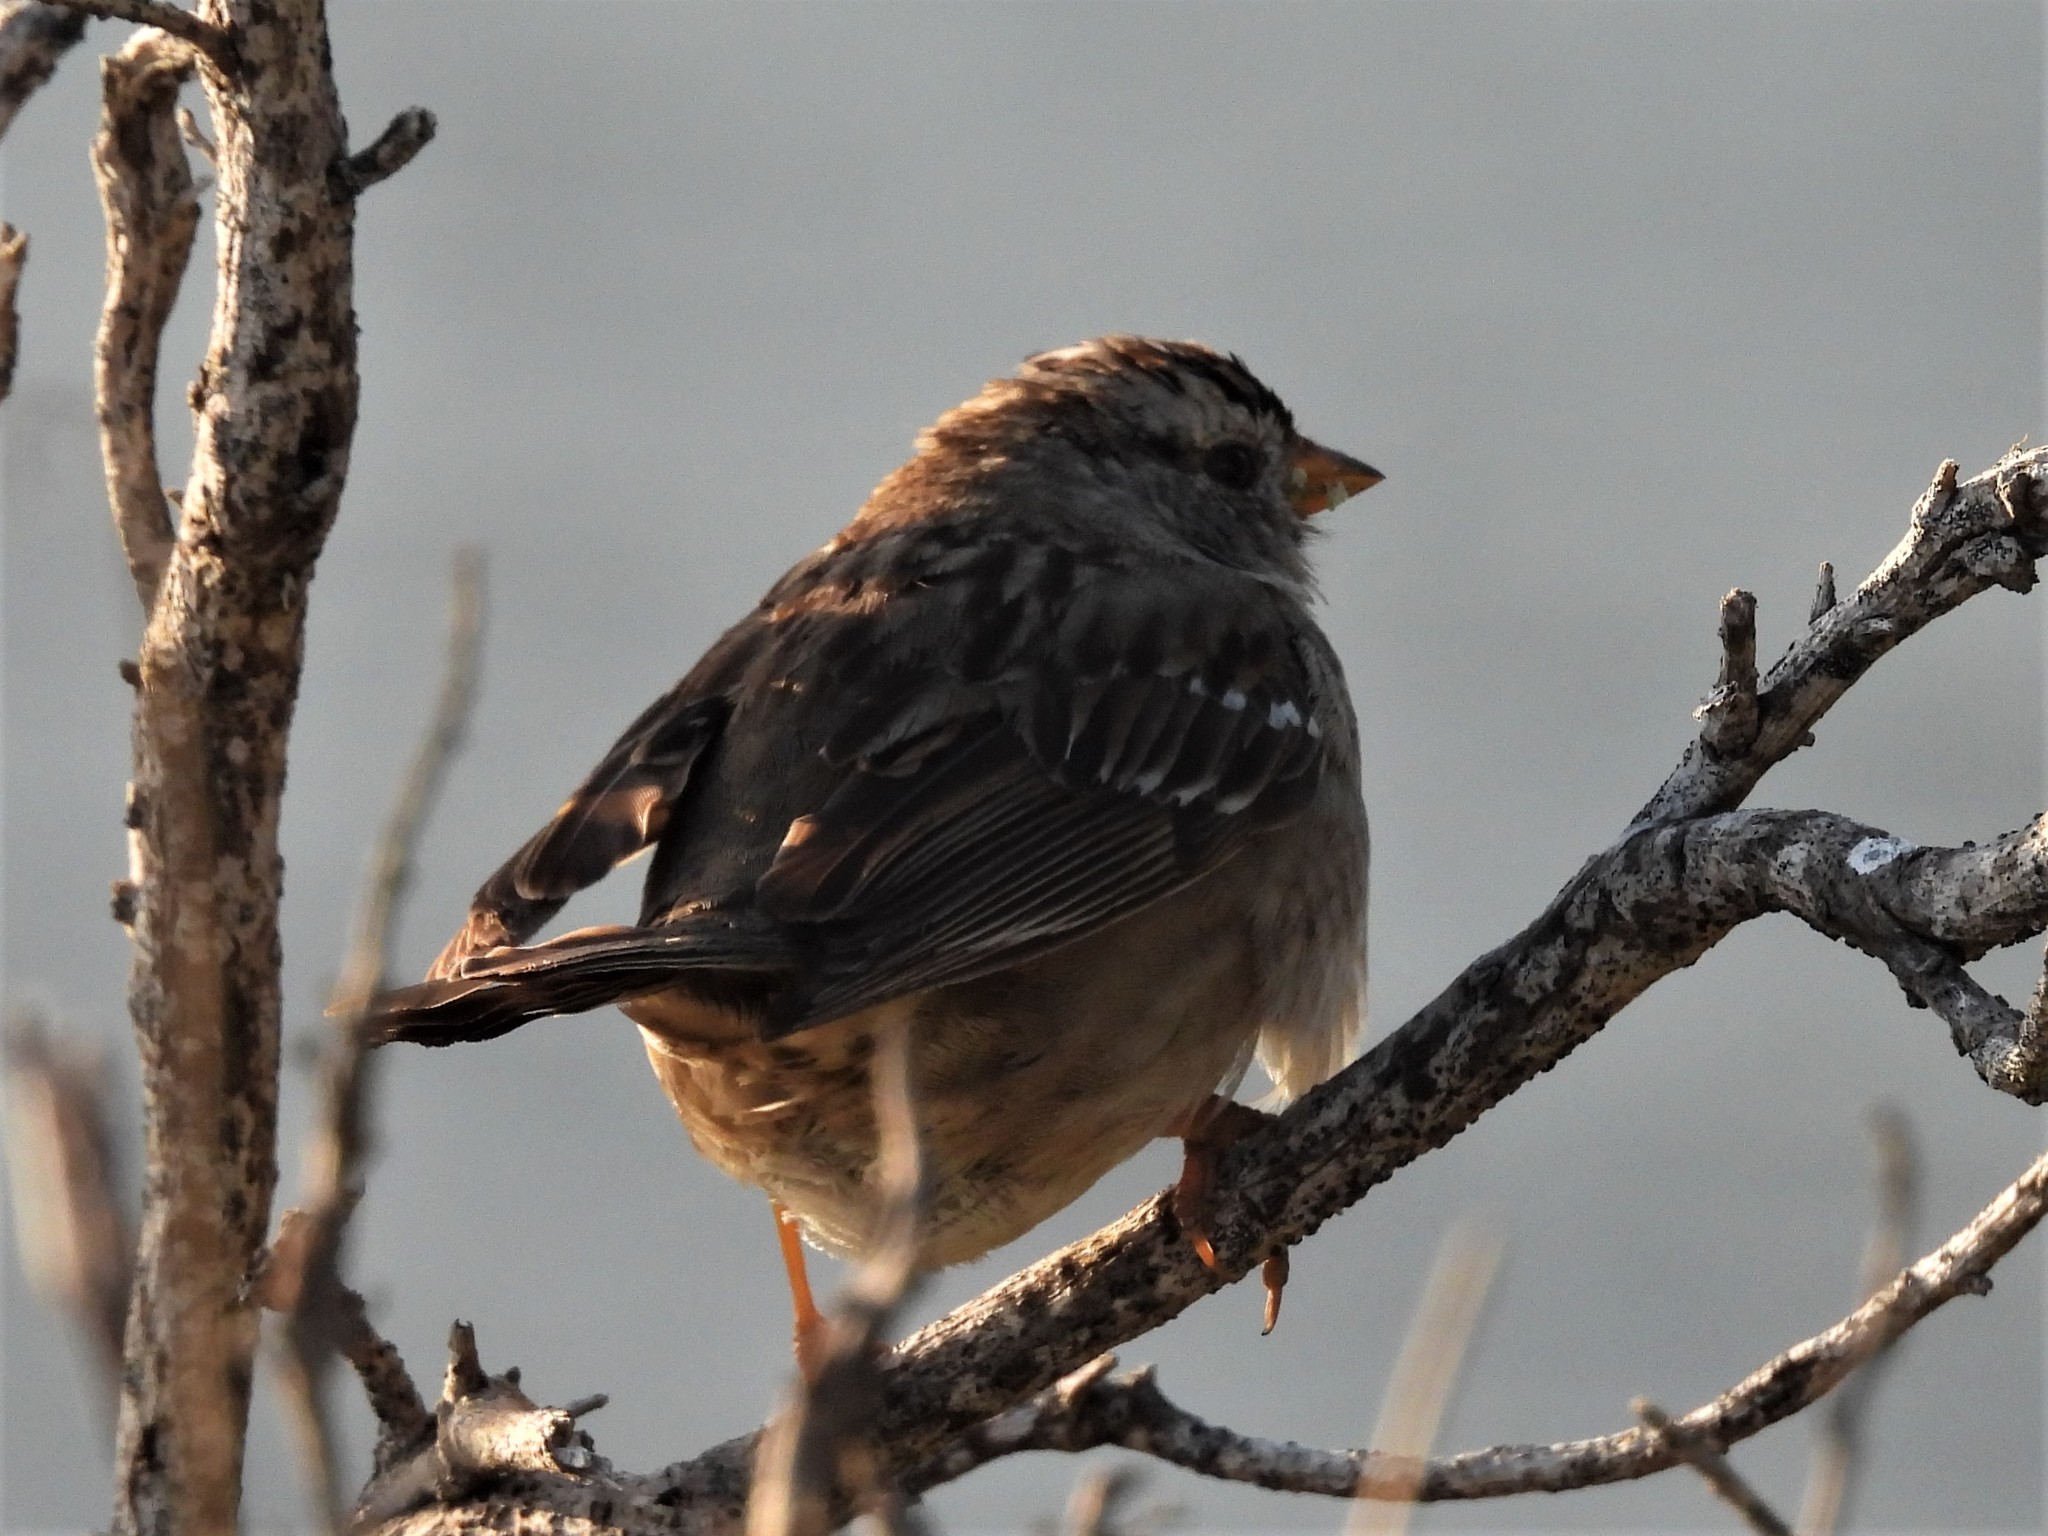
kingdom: Animalia
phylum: Chordata
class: Aves
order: Passeriformes
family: Passerellidae
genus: Zonotrichia
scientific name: Zonotrichia leucophrys
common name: White-crowned sparrow
